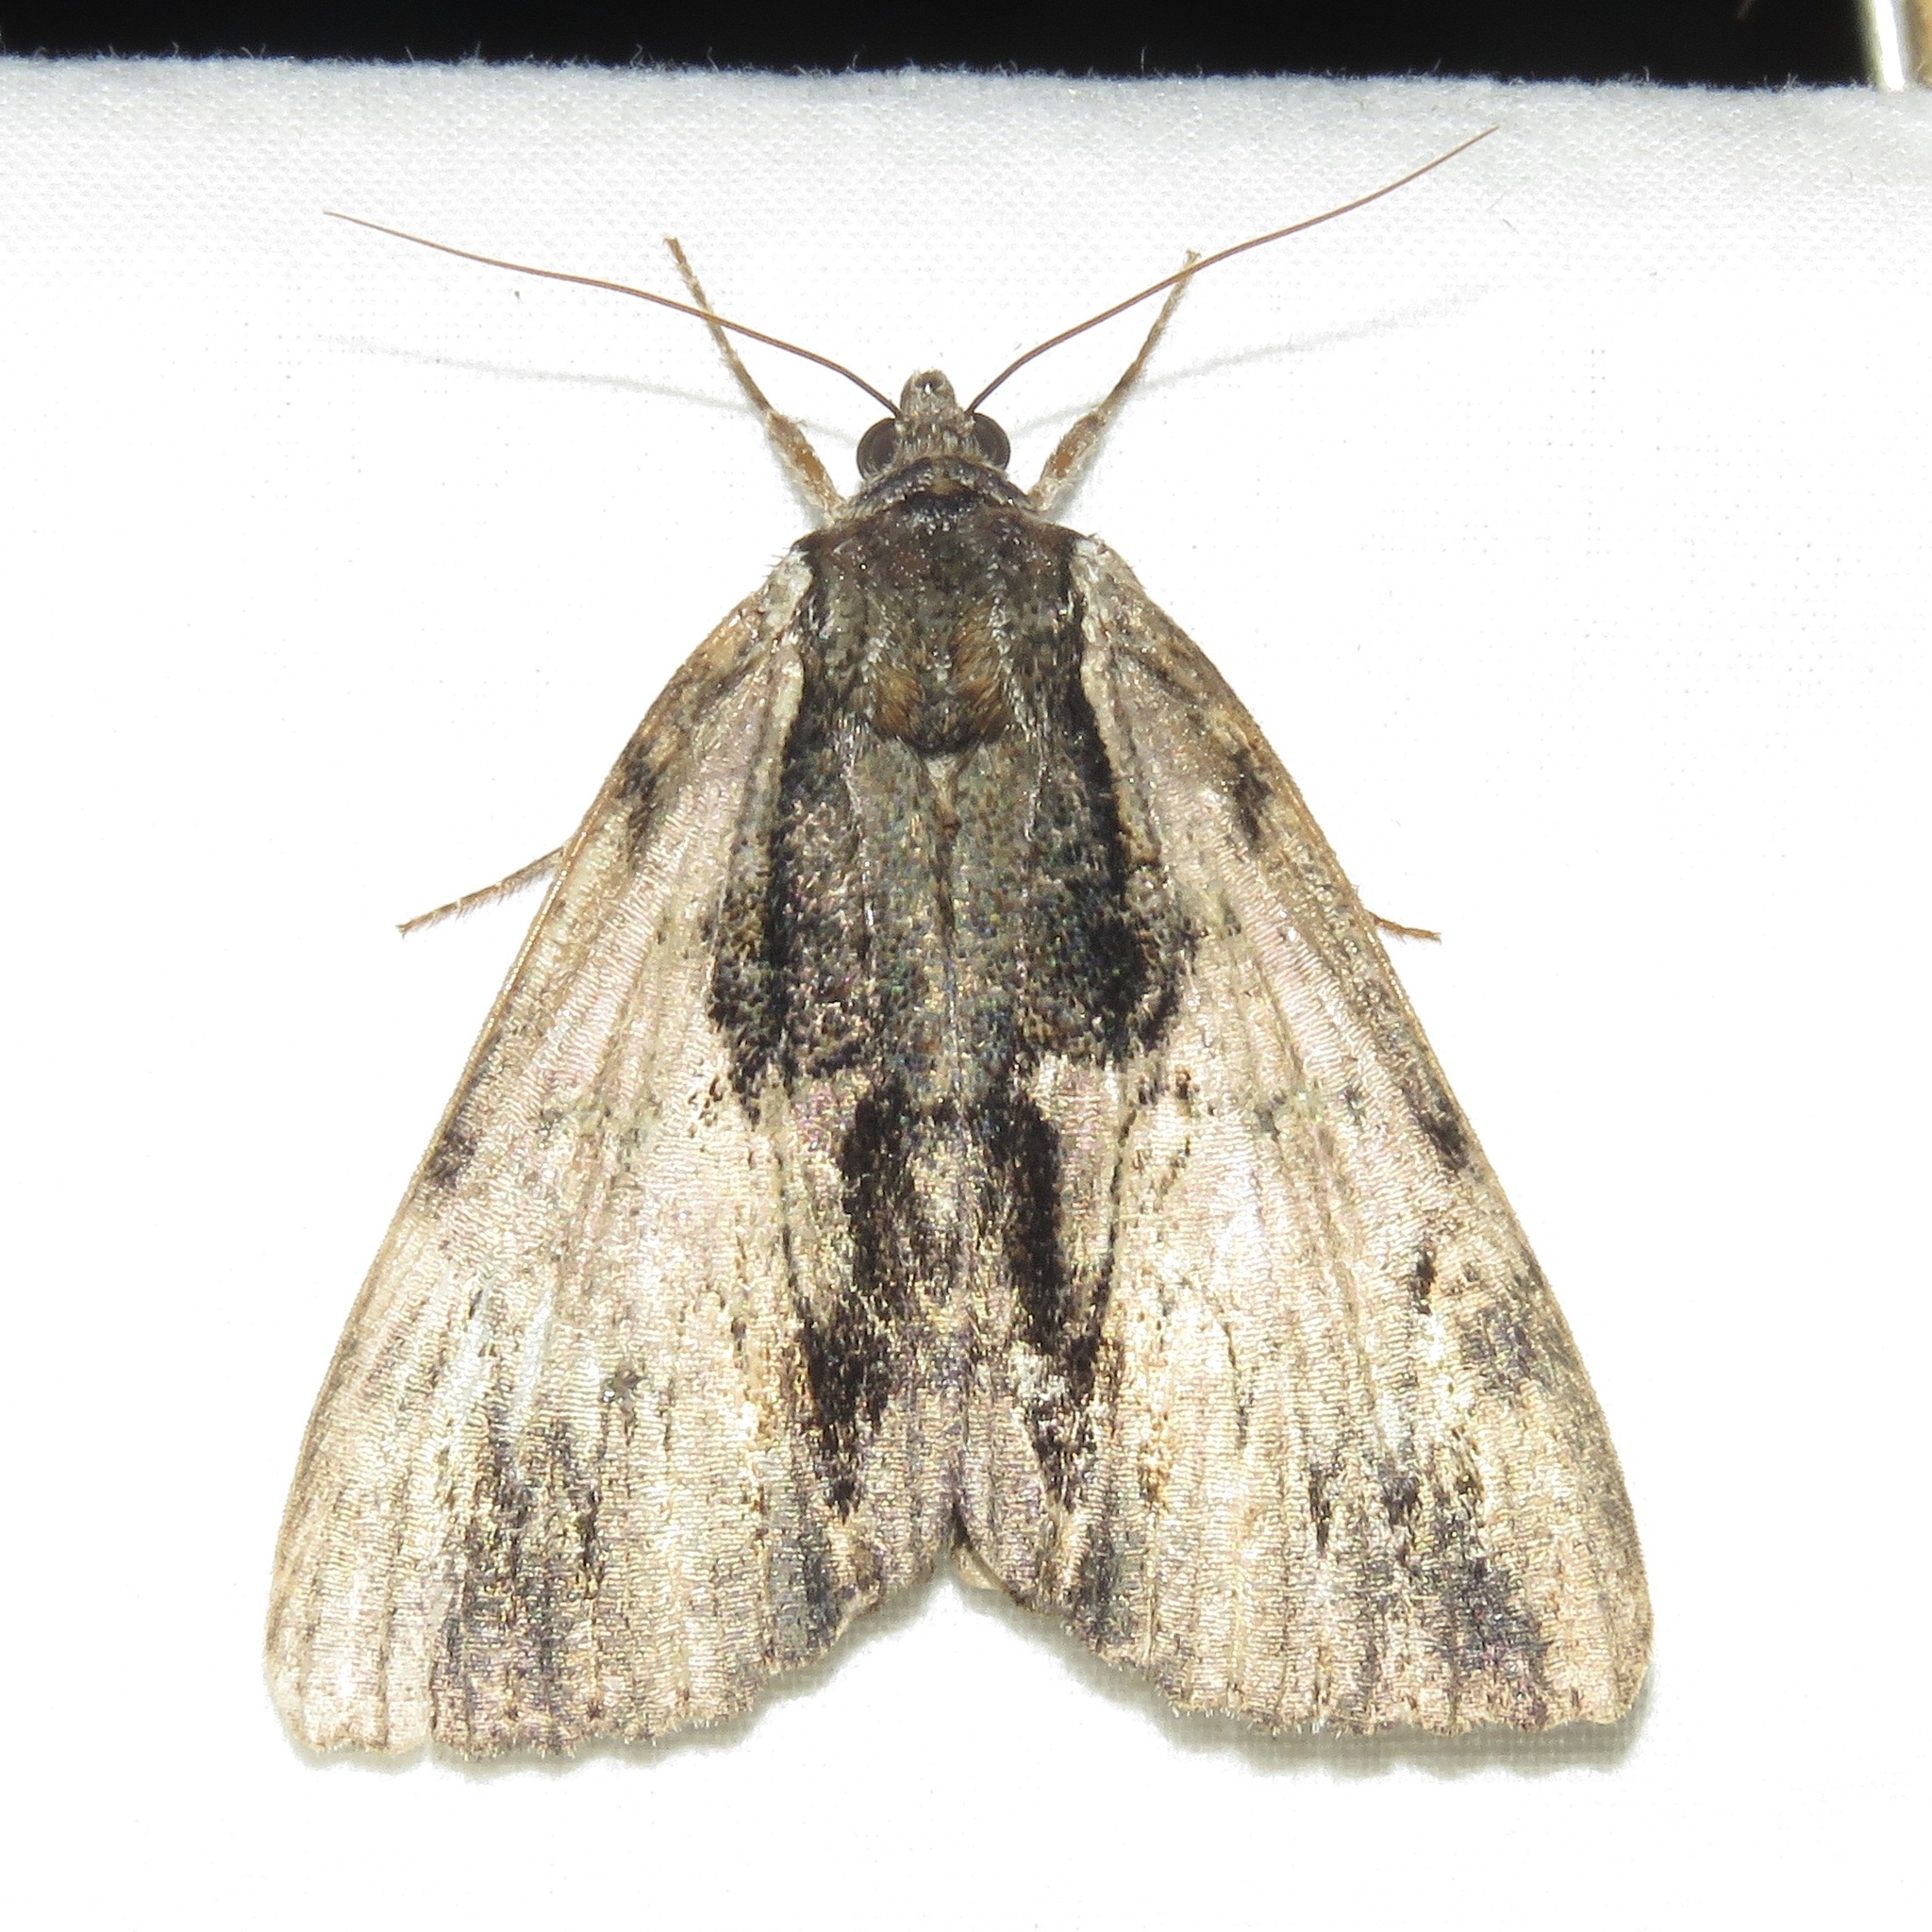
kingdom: Animalia
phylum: Arthropoda
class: Insecta
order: Lepidoptera
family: Erebidae
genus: Catocala
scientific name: Catocala ultronia
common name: Ultronia underwing
